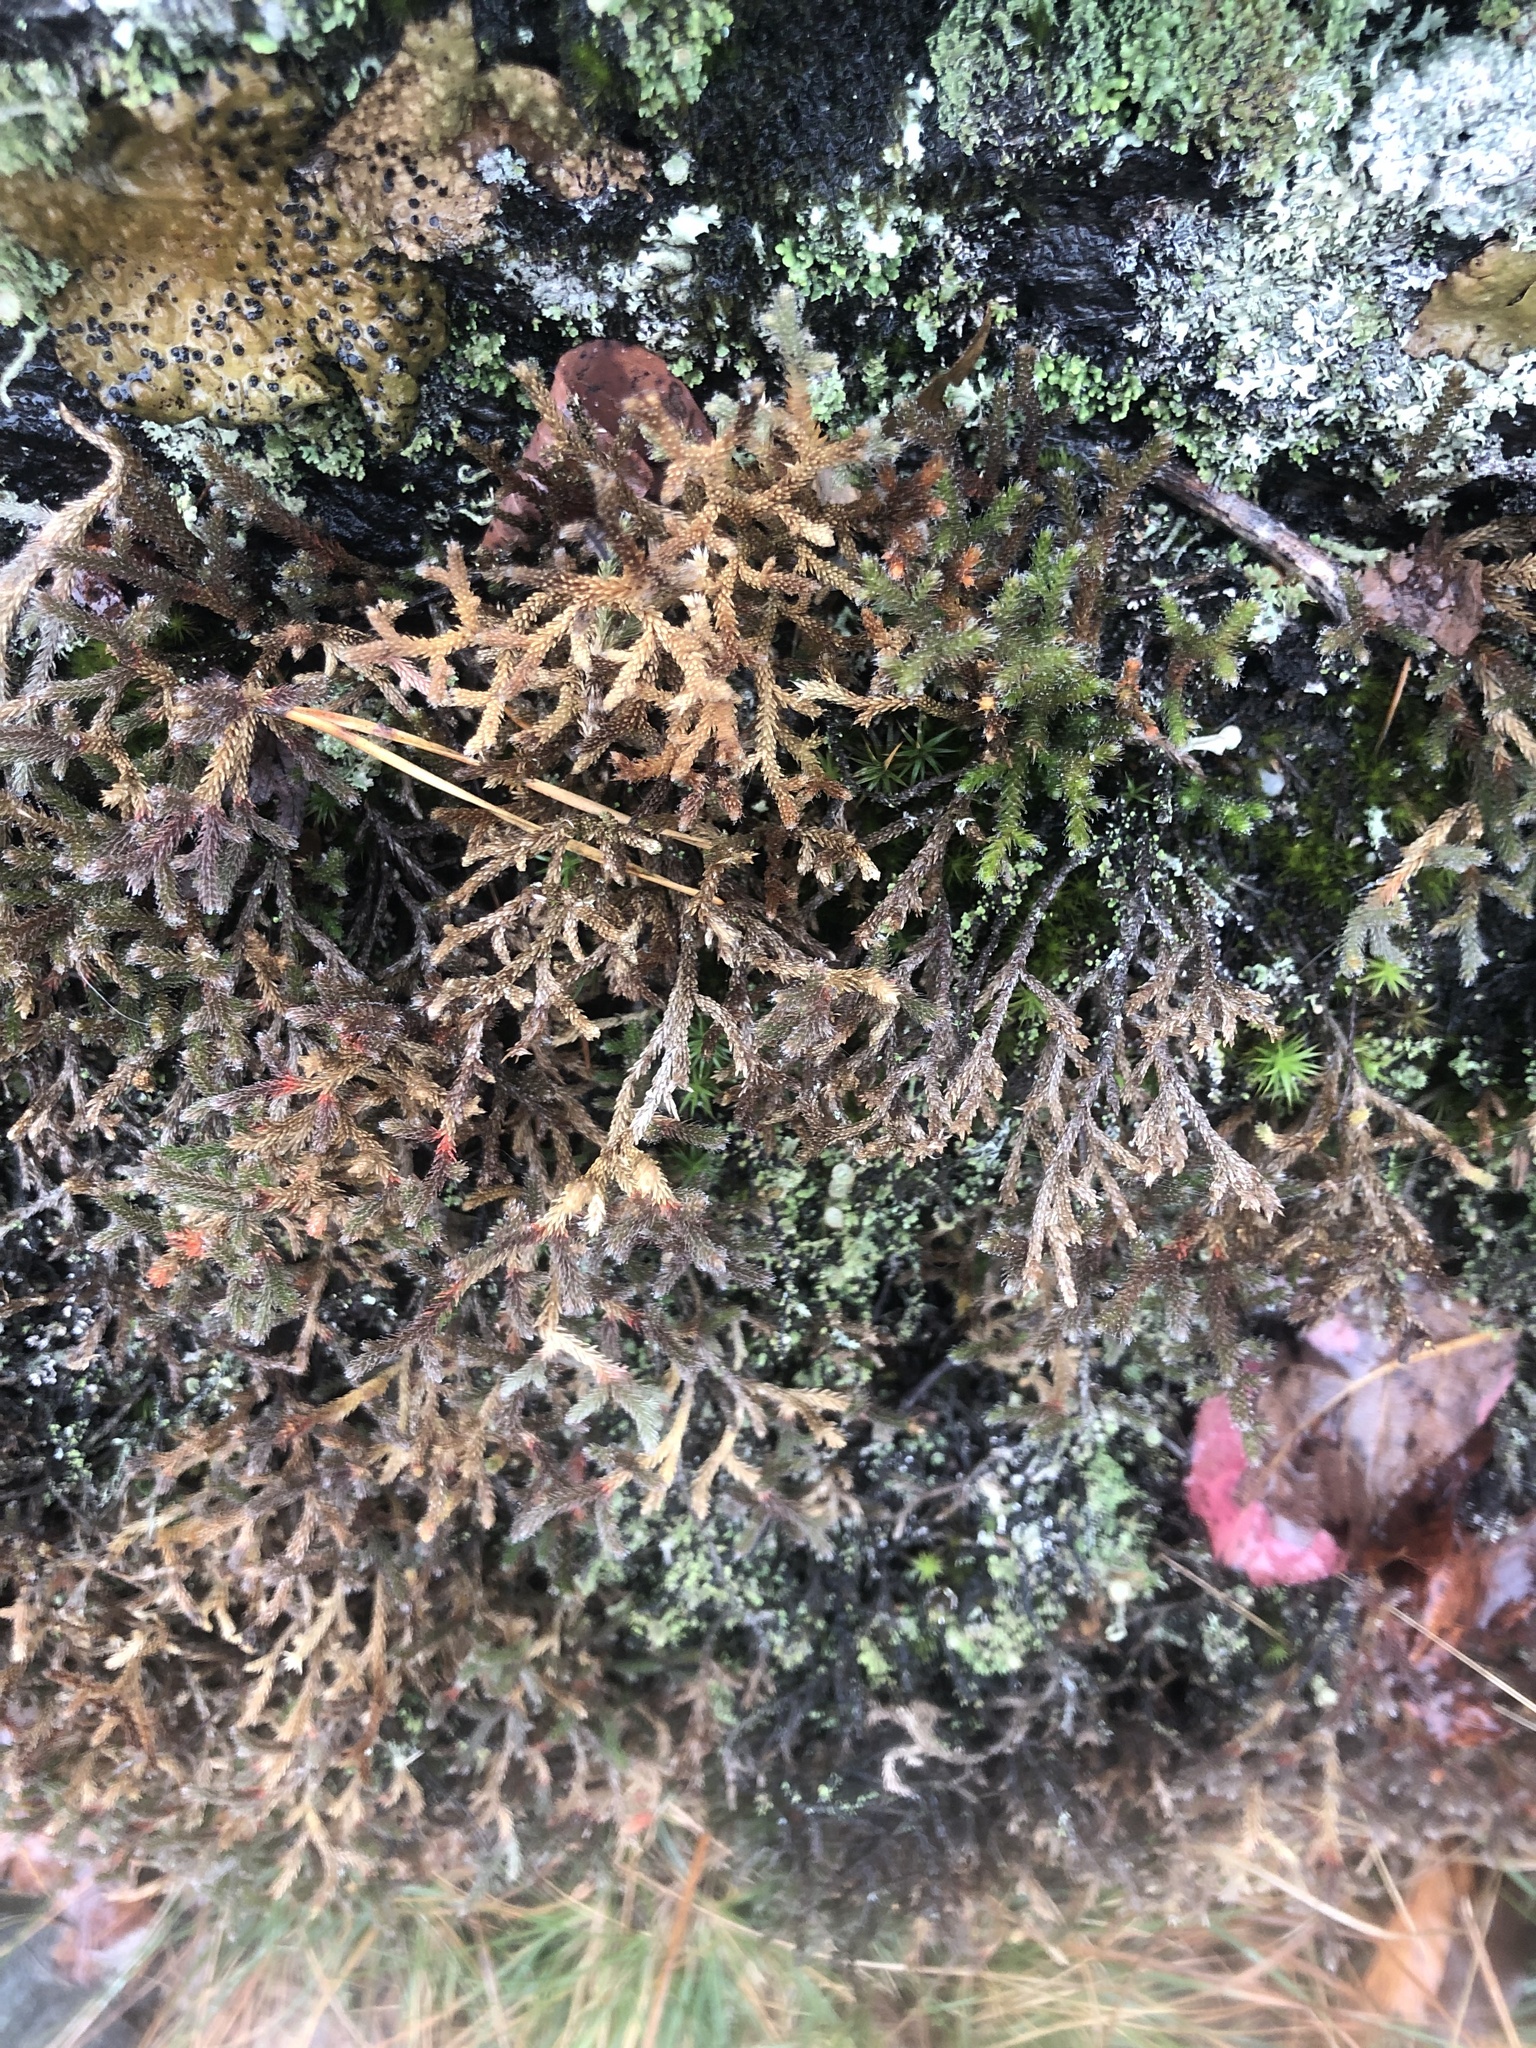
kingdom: Plantae
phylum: Tracheophyta
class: Lycopodiopsida
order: Selaginellales
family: Selaginellaceae
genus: Selaginella
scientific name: Selaginella tortipila
